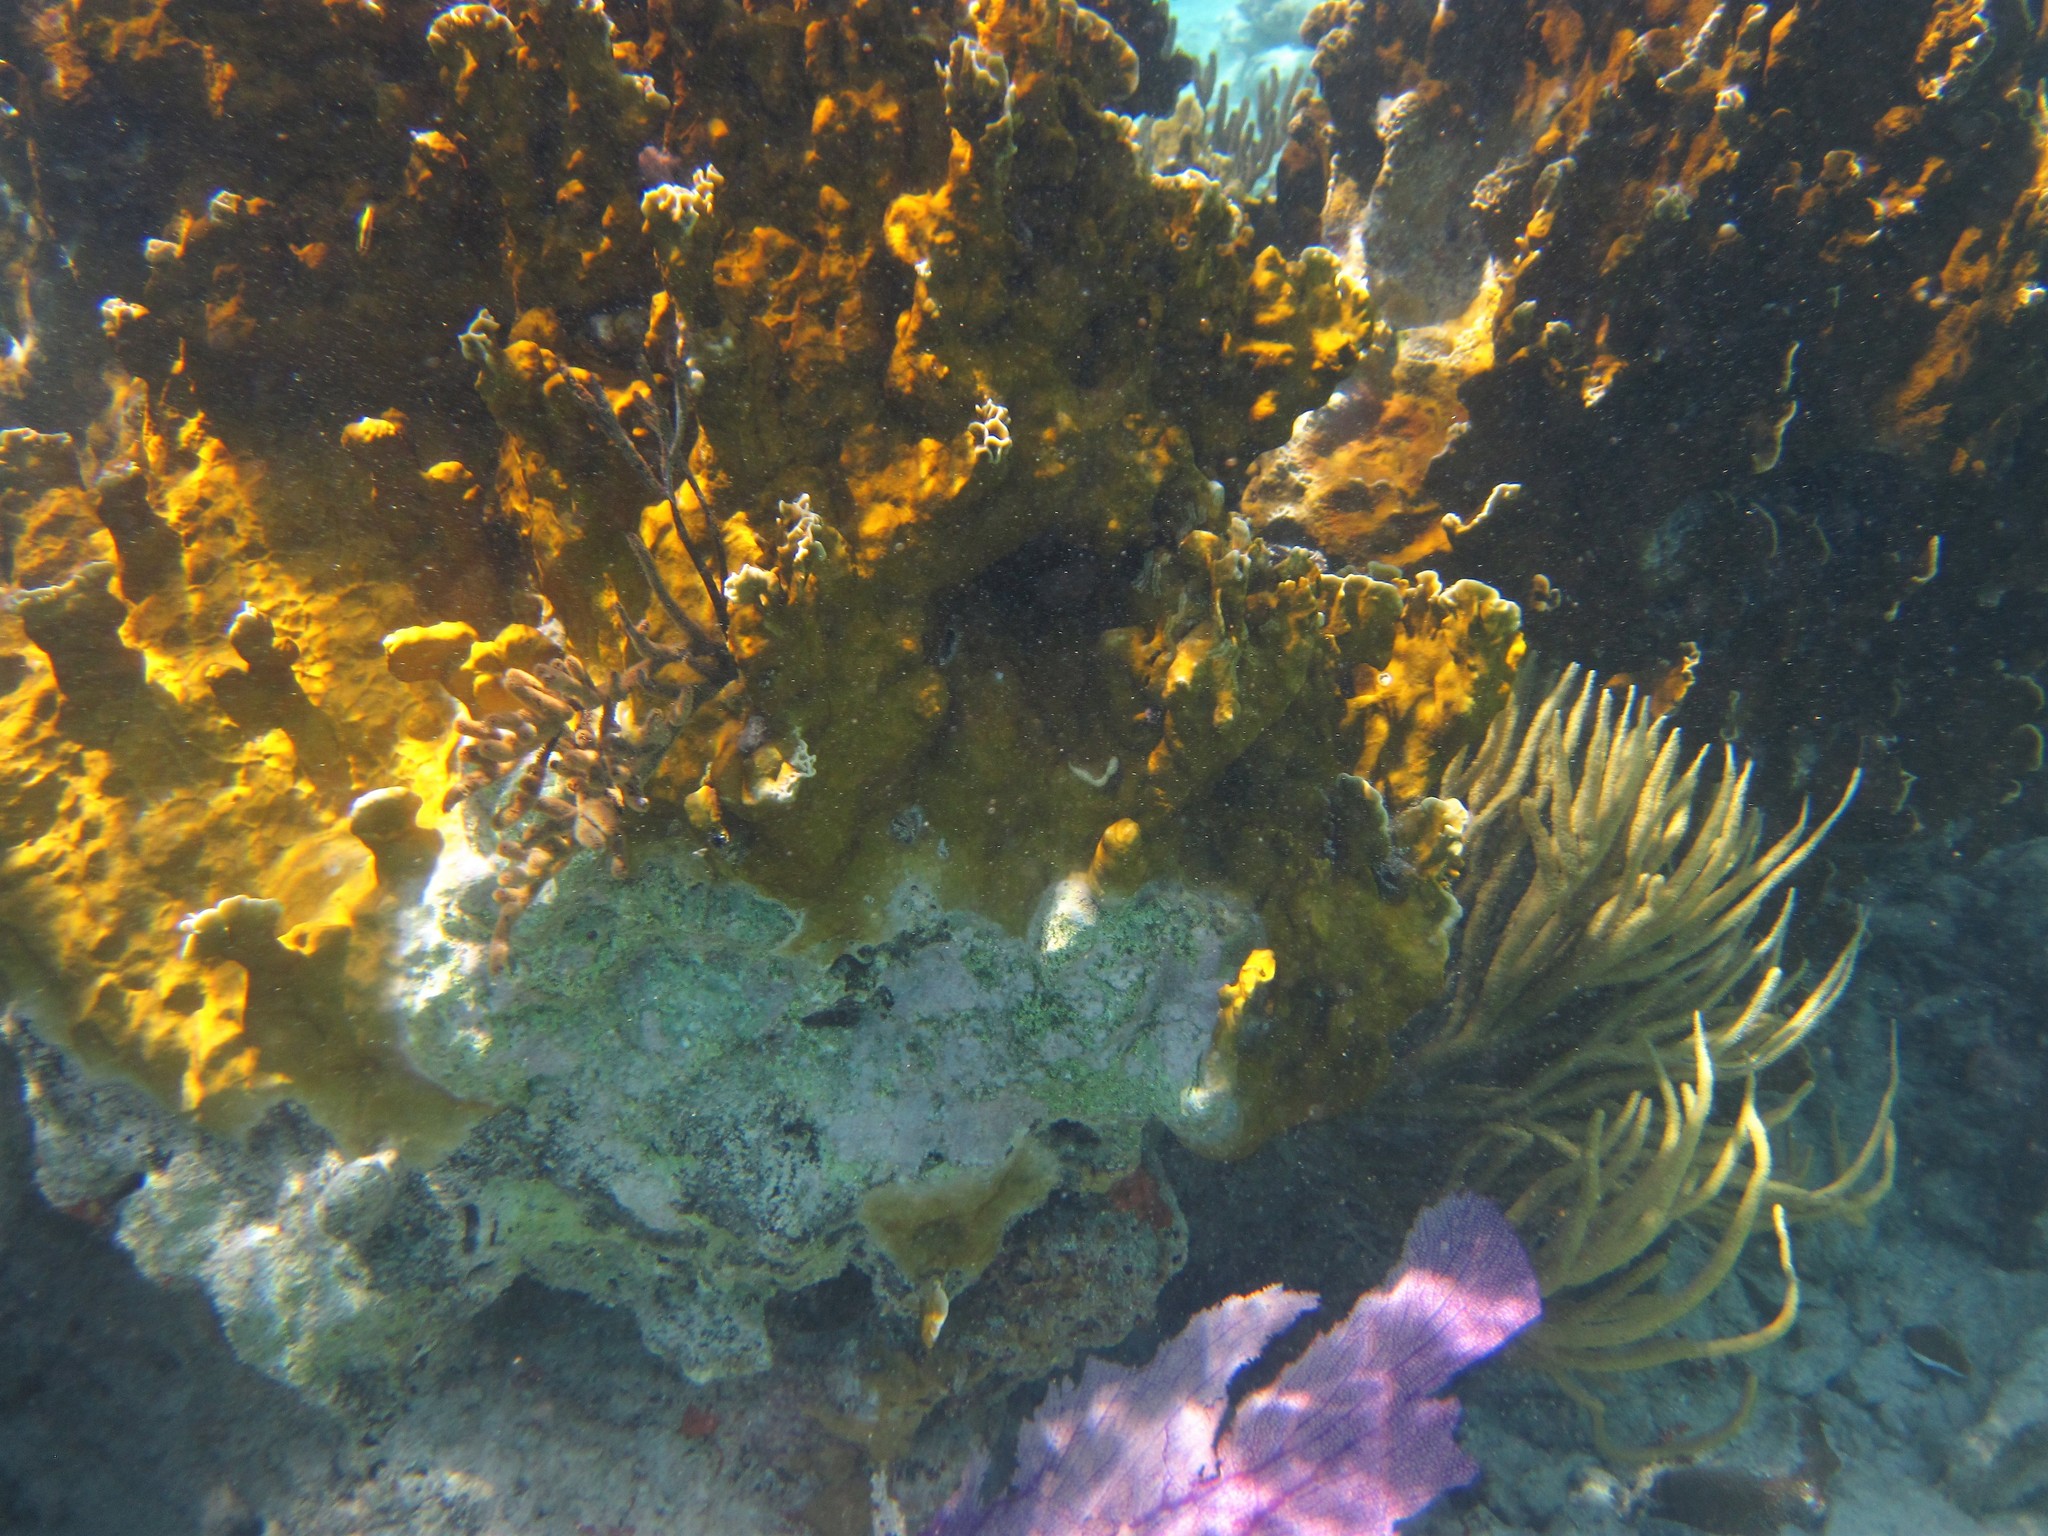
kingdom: Animalia
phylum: Cnidaria
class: Hydrozoa
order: Anthoathecata
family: Milleporidae
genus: Millepora
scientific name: Millepora complanata
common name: Bladed fire coral
